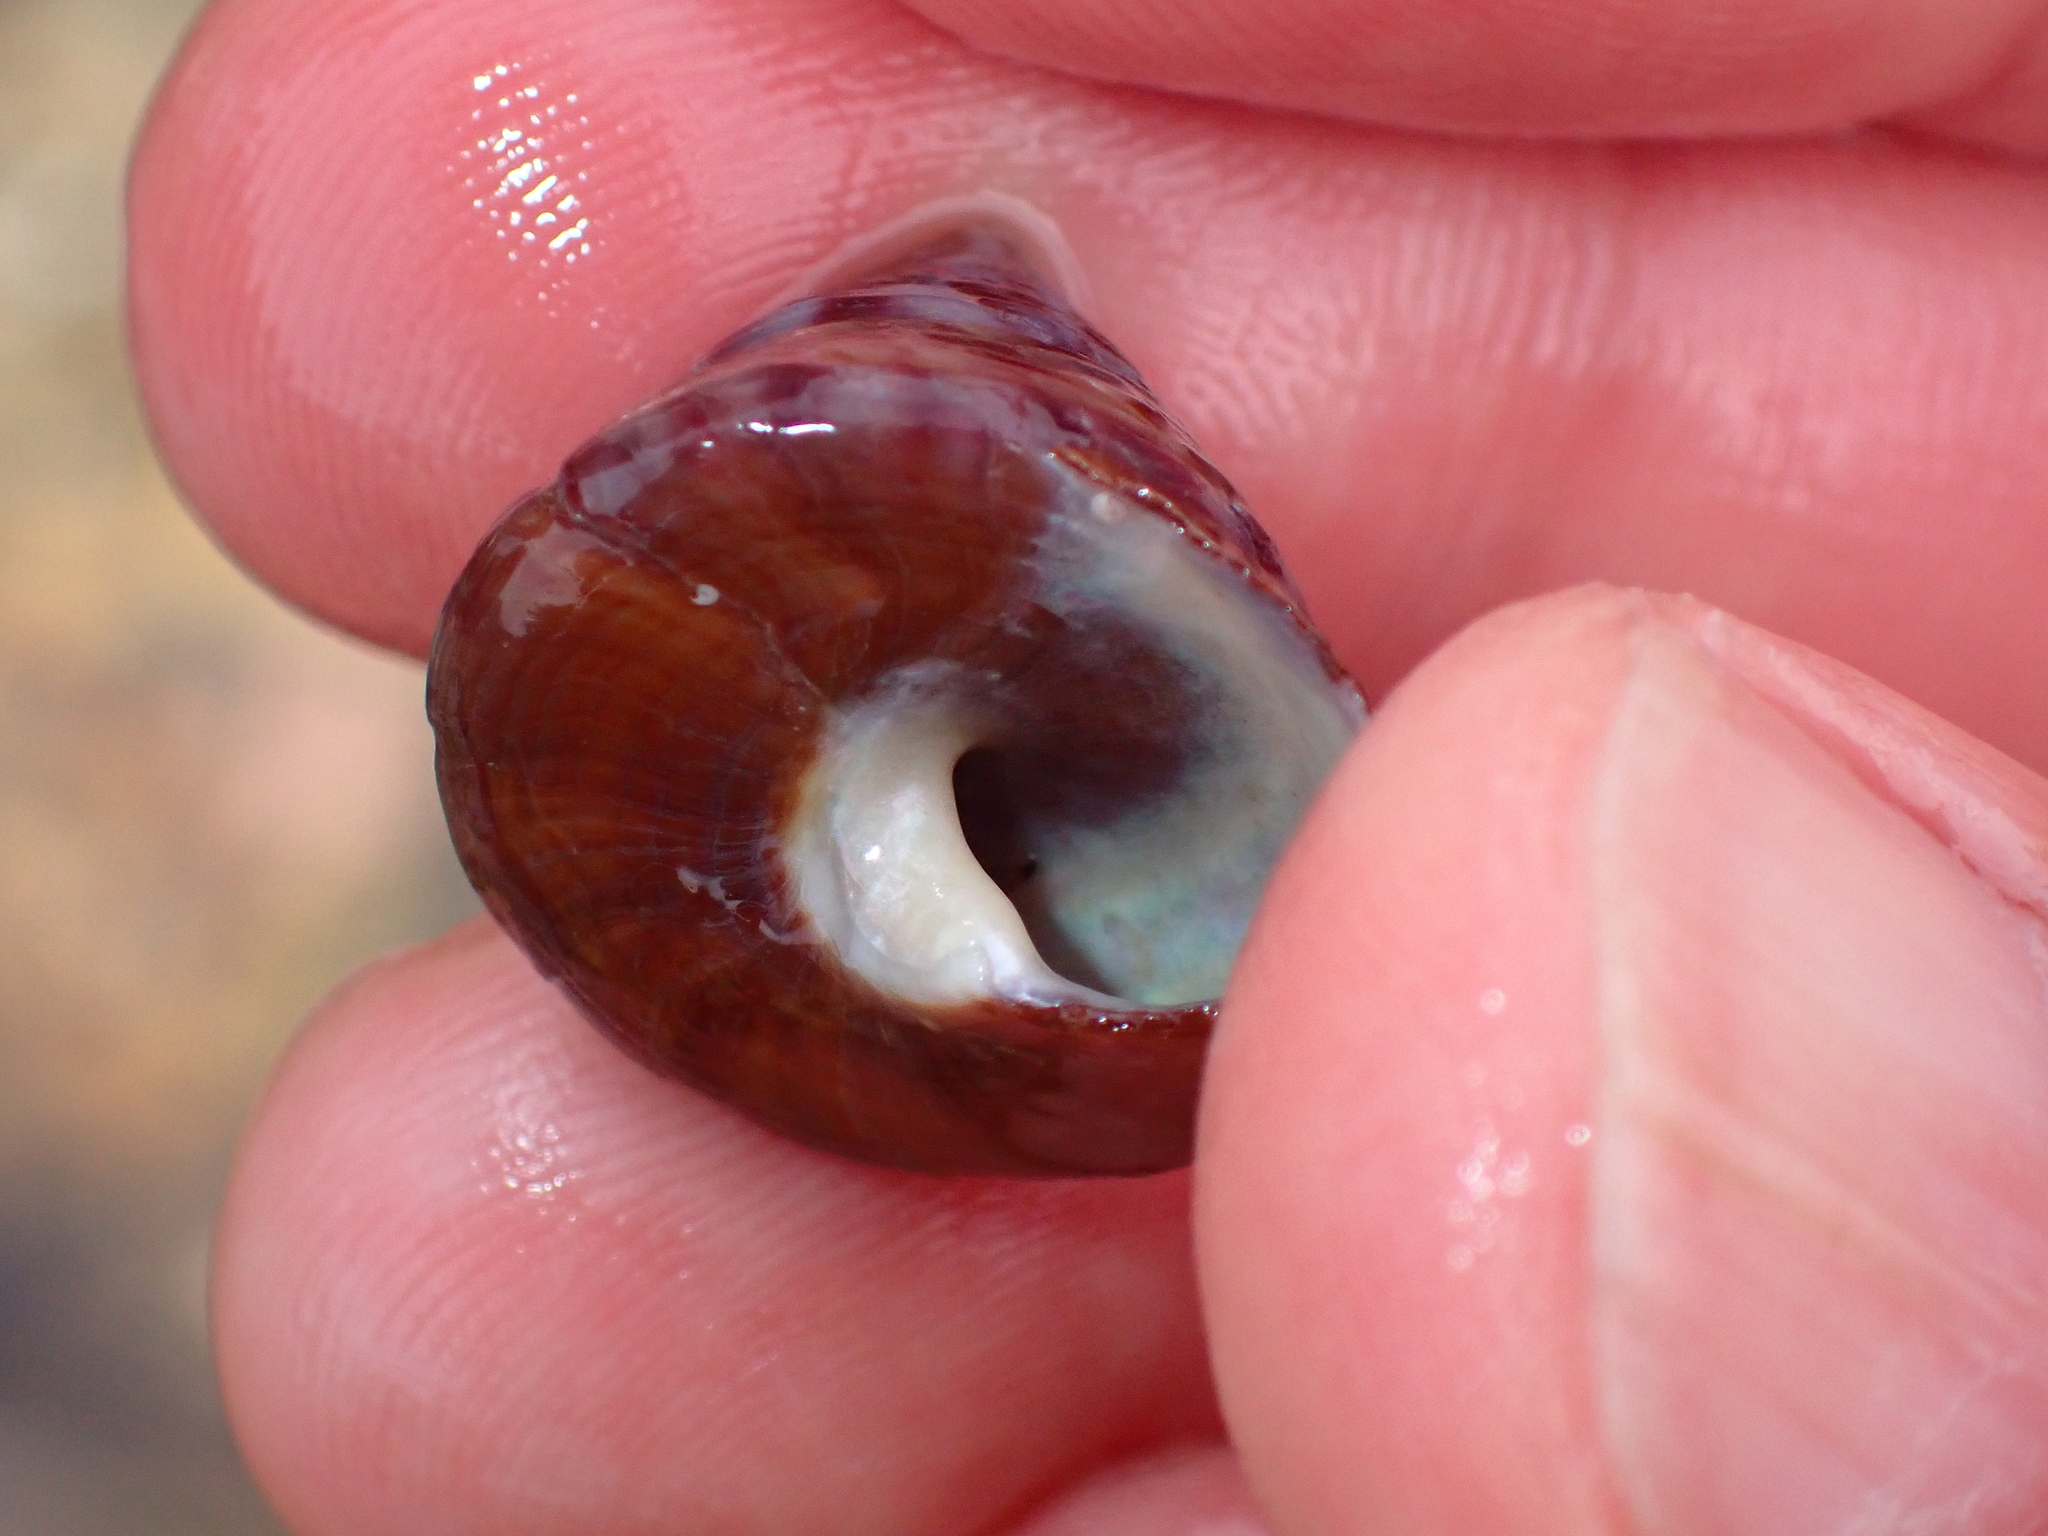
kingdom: Animalia
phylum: Mollusca
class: Gastropoda
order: Trochida
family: Calliostomatidae
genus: Calliostoma
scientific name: Calliostoma zizyphinum
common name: Painted top shell
